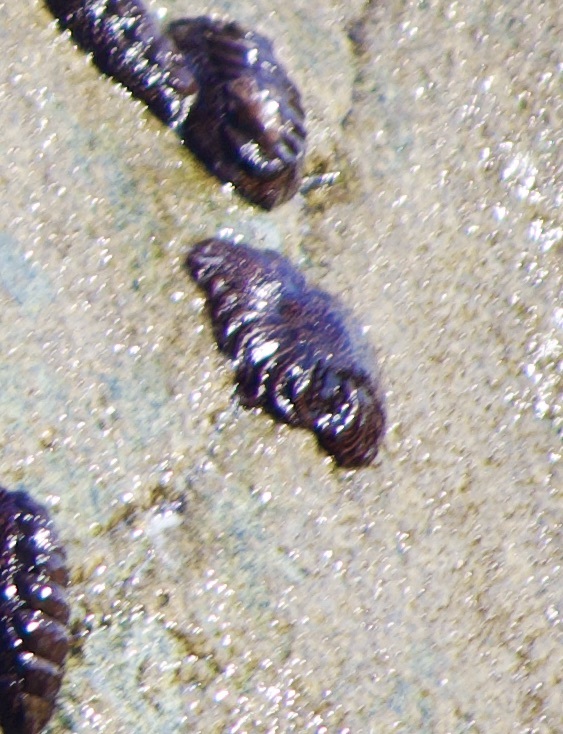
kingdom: Animalia
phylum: Echinodermata
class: Asteroidea
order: Forcipulatida
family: Heliasteridae
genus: Heliaster
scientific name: Heliaster helianthus
